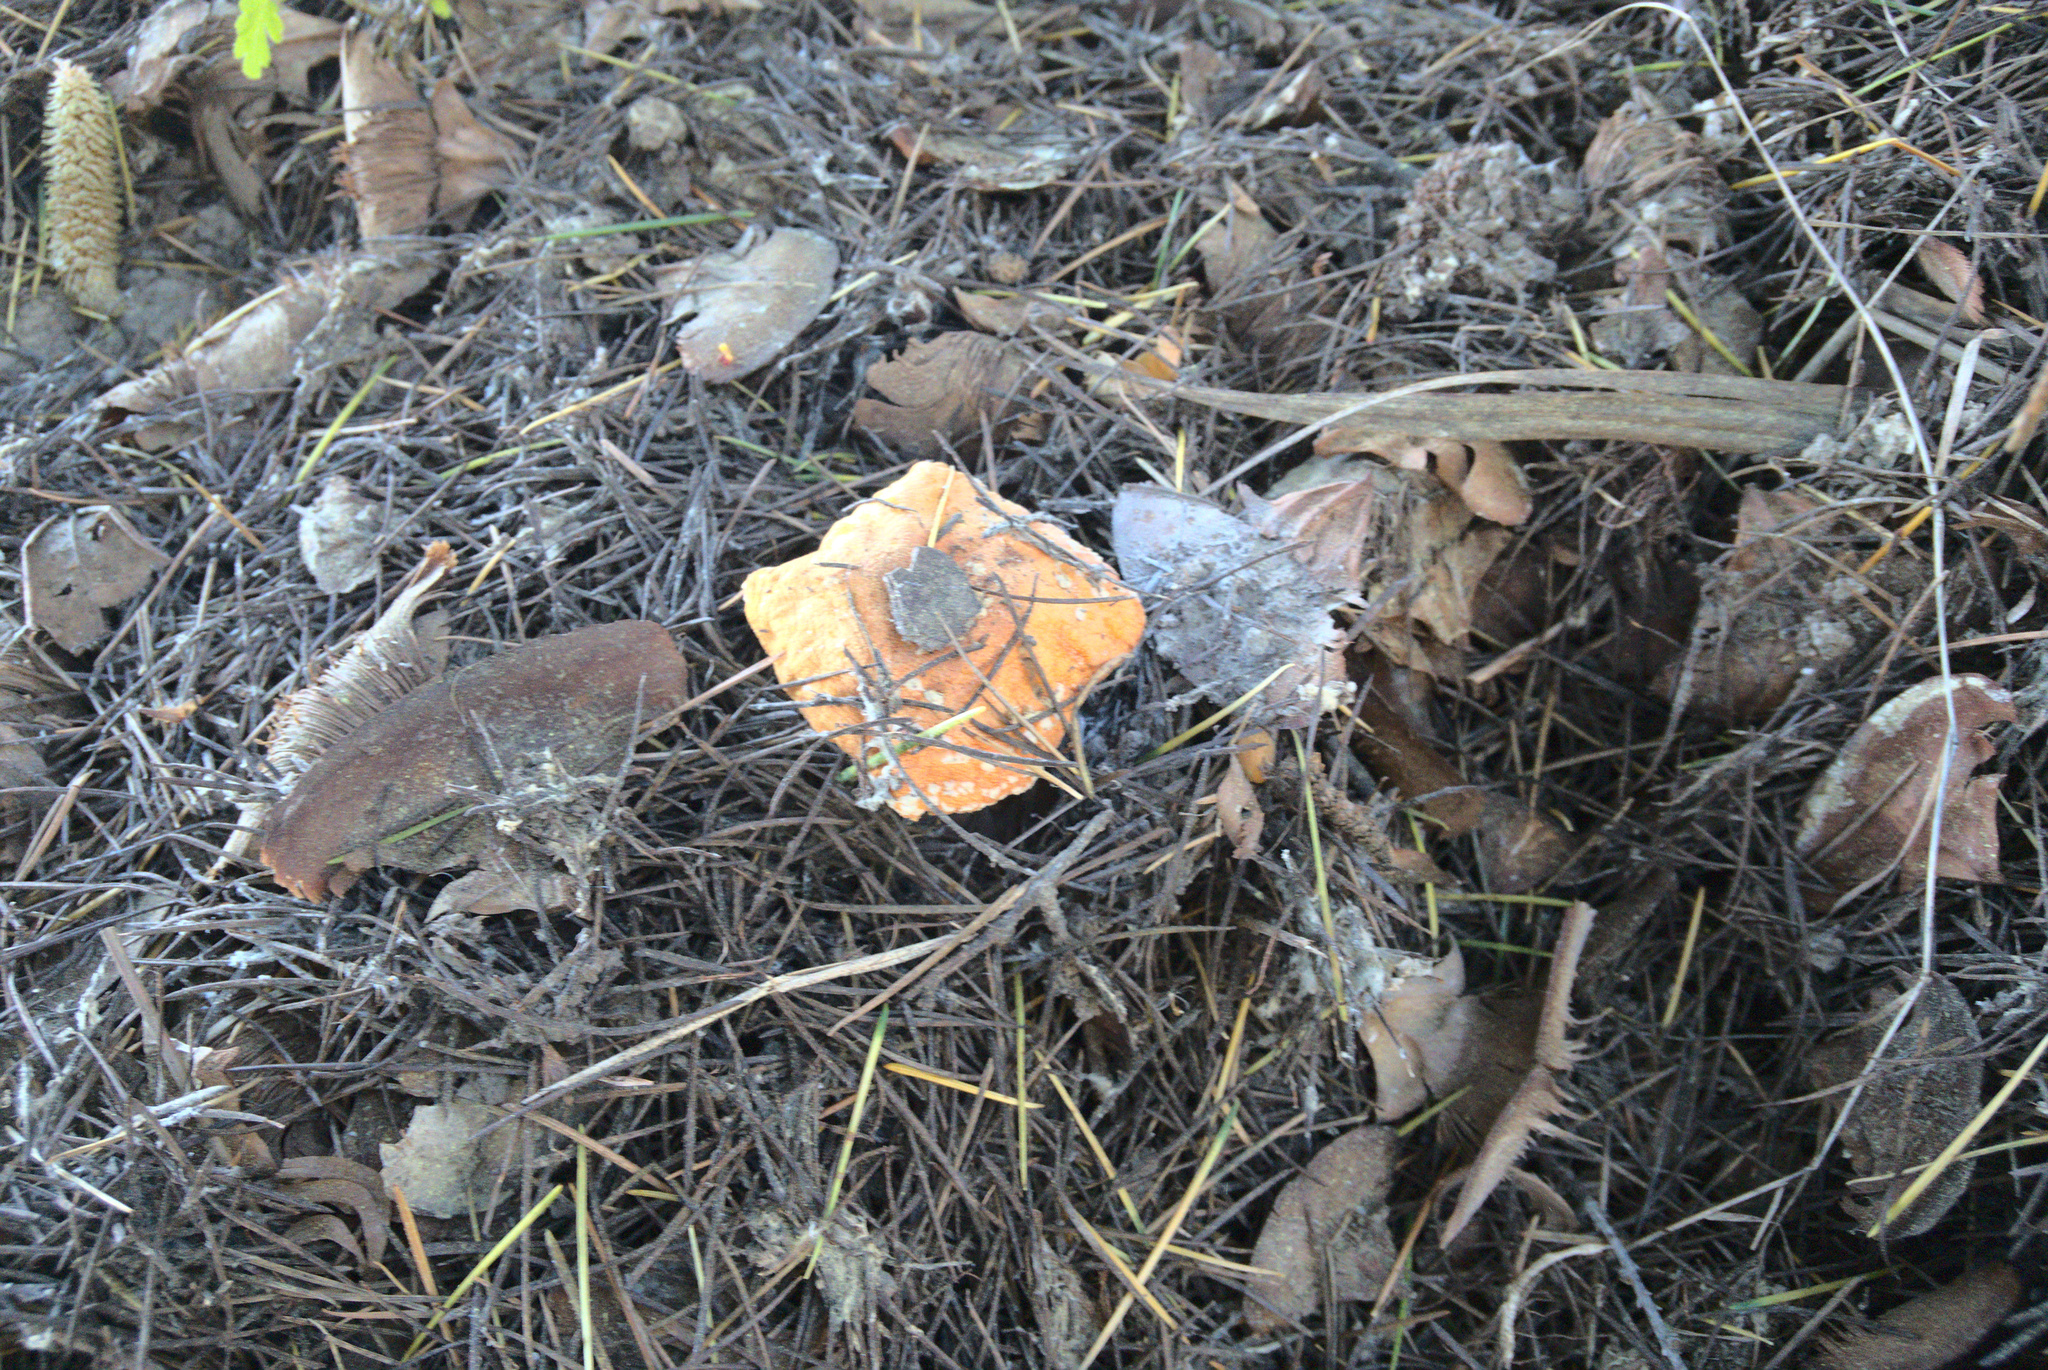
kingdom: Fungi
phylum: Basidiomycota
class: Agaricomycetes
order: Agaricales
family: Amanitaceae
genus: Amanita
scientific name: Amanita muscaria
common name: Fly agaric
